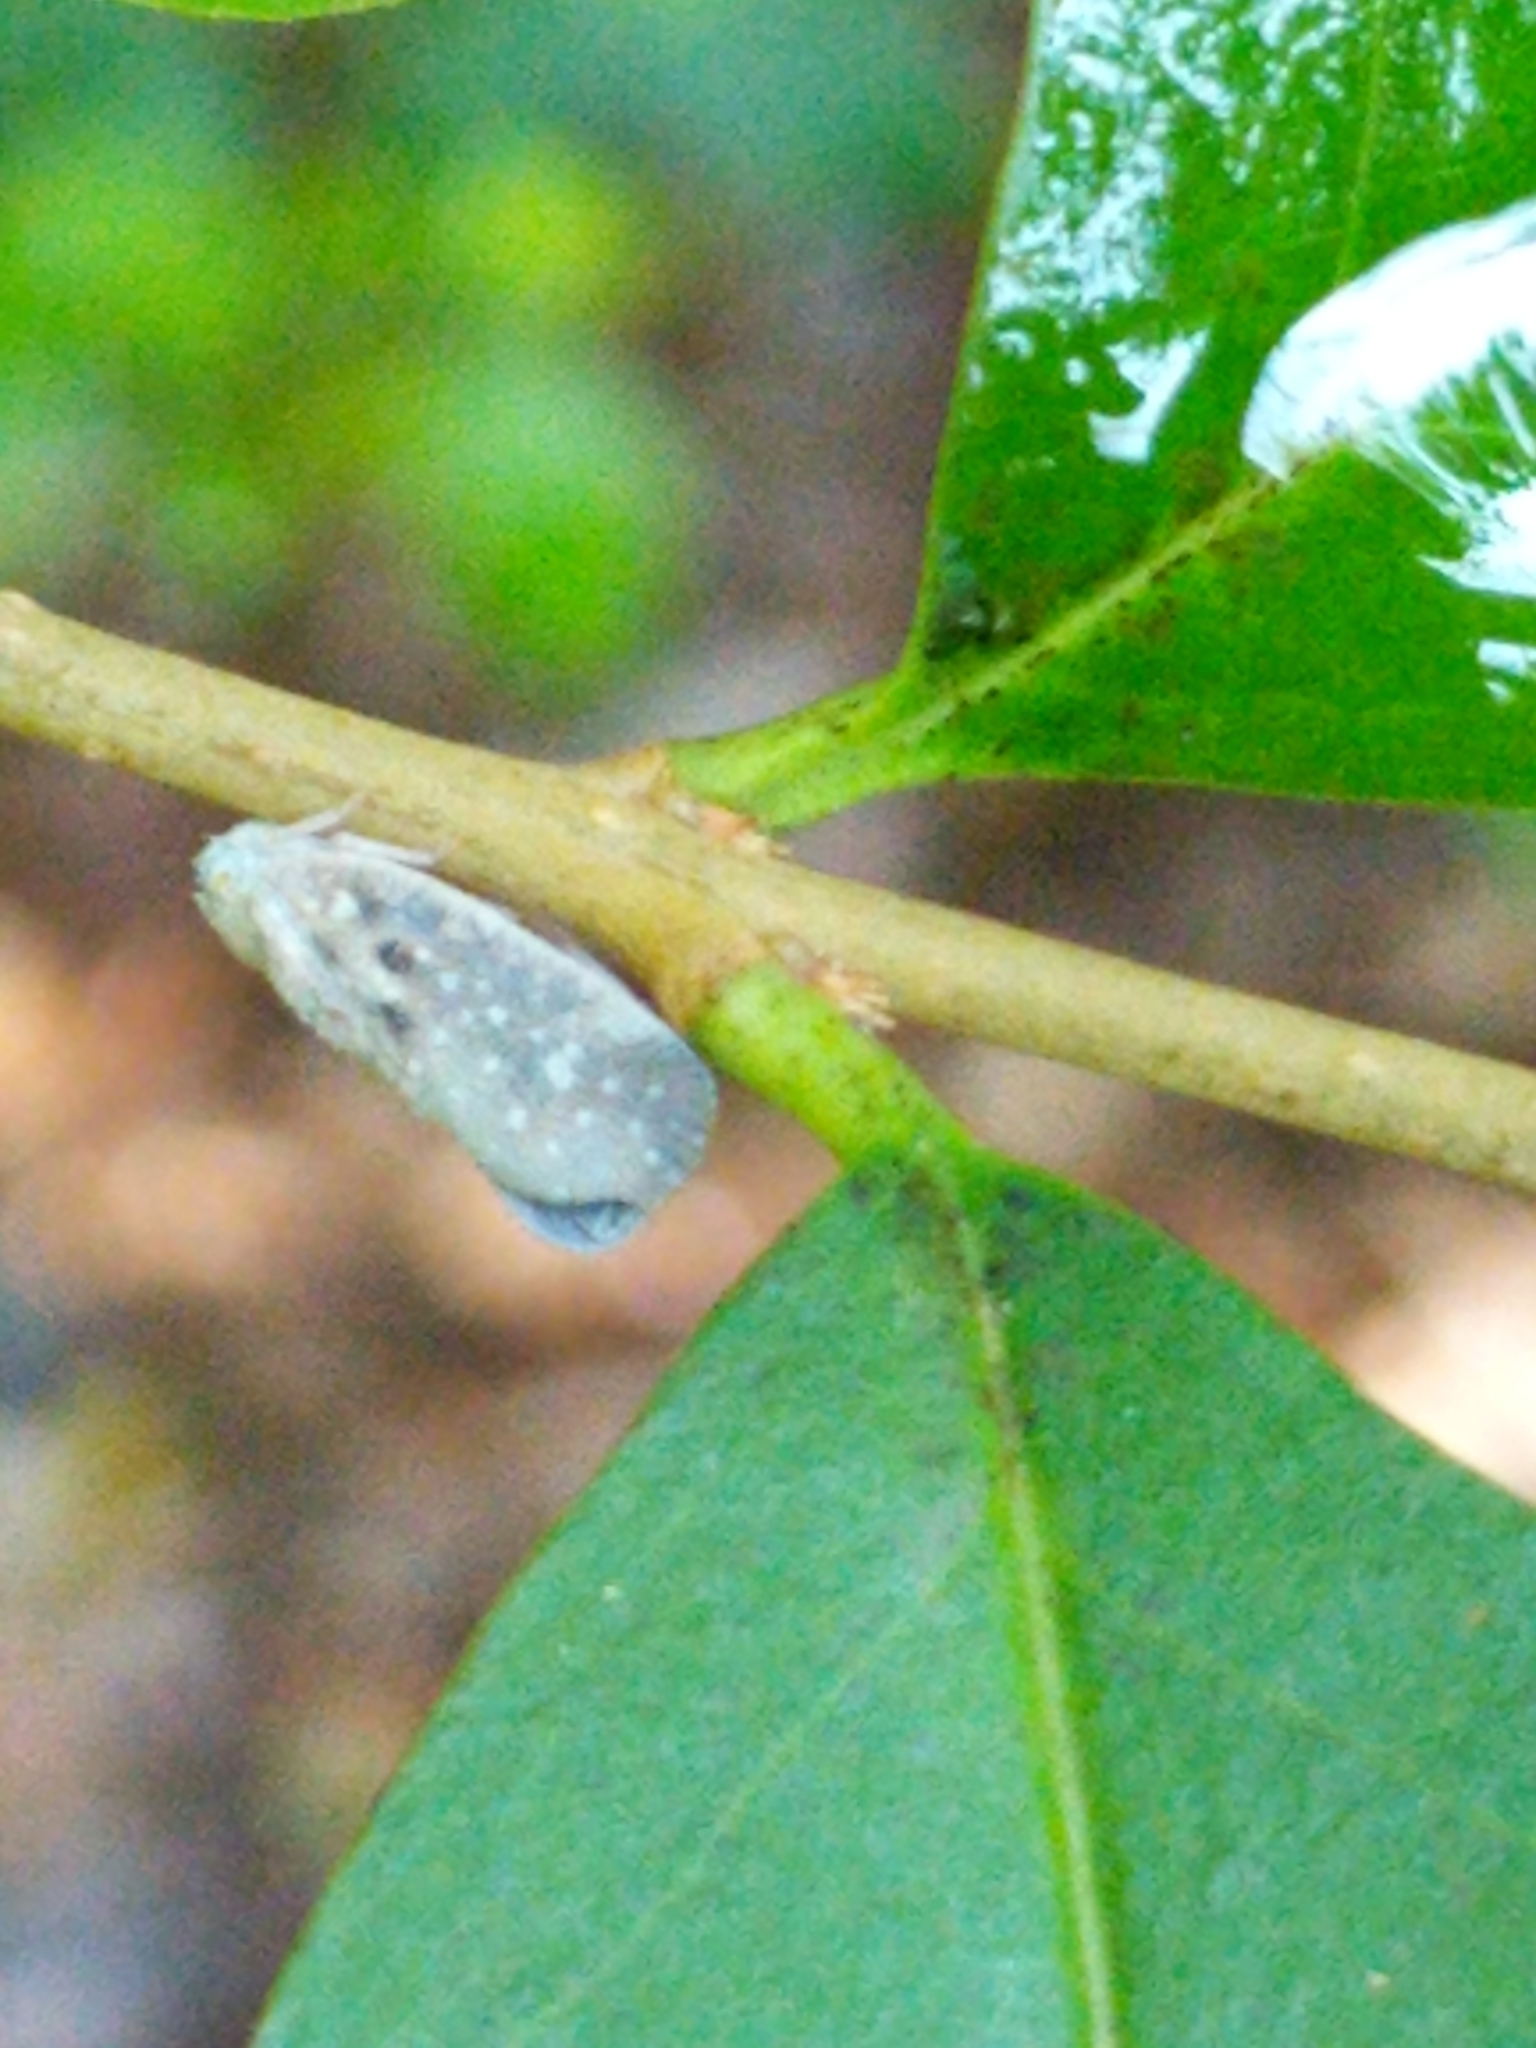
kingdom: Animalia
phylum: Arthropoda
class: Insecta
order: Hemiptera
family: Flatidae
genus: Metcalfa
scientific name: Metcalfa pruinosa
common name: Citrus flatid planthopper
